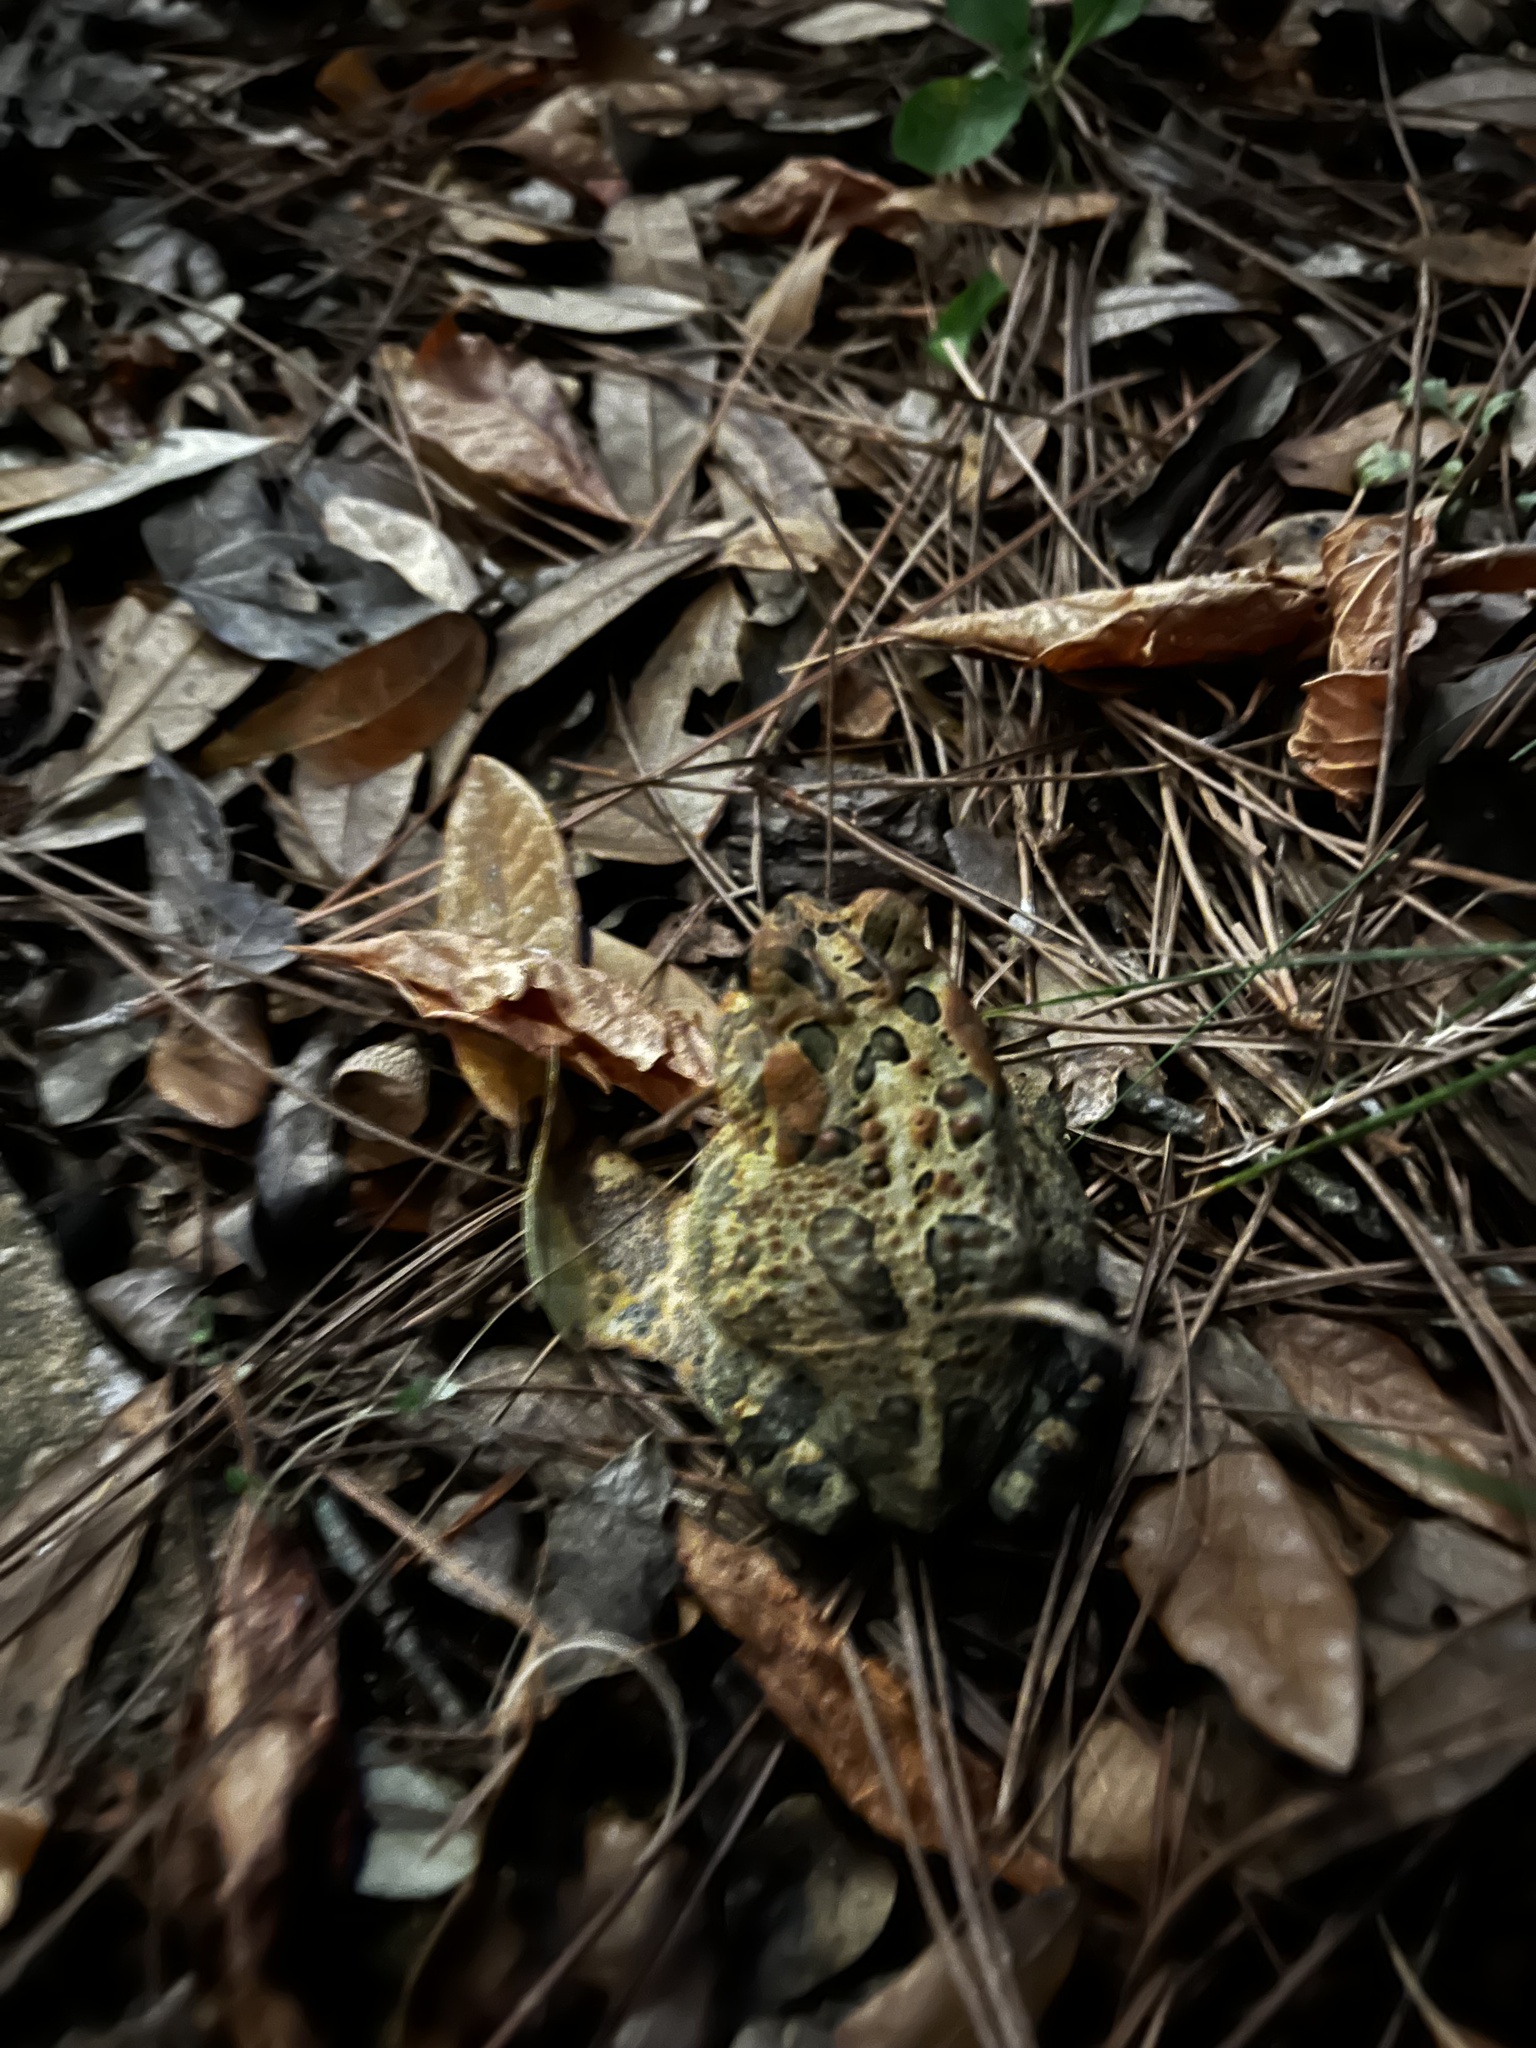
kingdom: Animalia
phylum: Chordata
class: Amphibia
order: Anura
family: Bufonidae
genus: Anaxyrus
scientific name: Anaxyrus terrestris
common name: Southern toad
